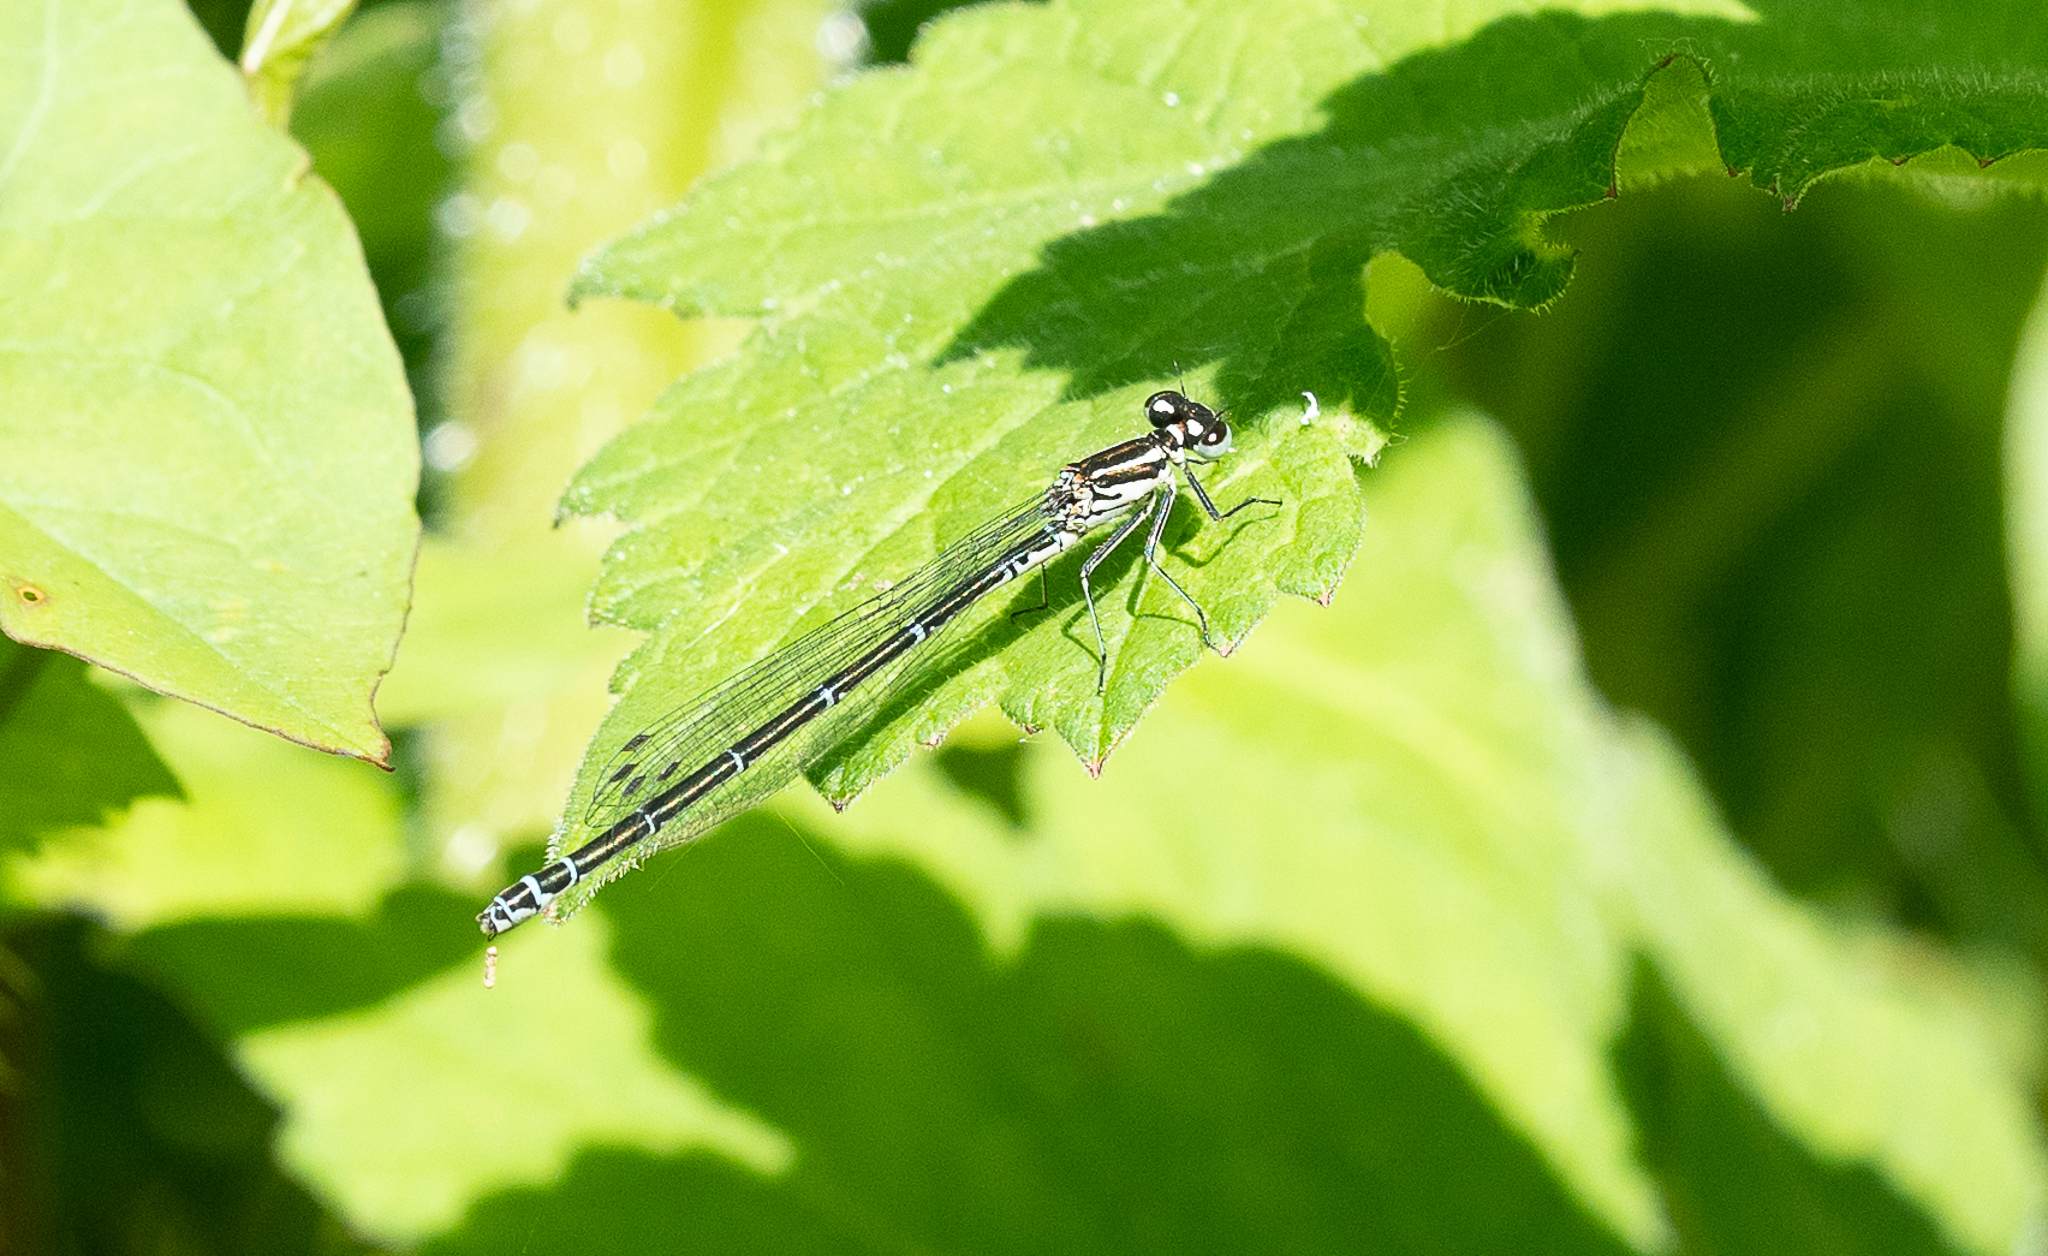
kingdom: Animalia
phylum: Arthropoda
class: Insecta
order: Odonata
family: Coenagrionidae
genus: Coenagrion
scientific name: Coenagrion puella
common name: Azure damselfly
